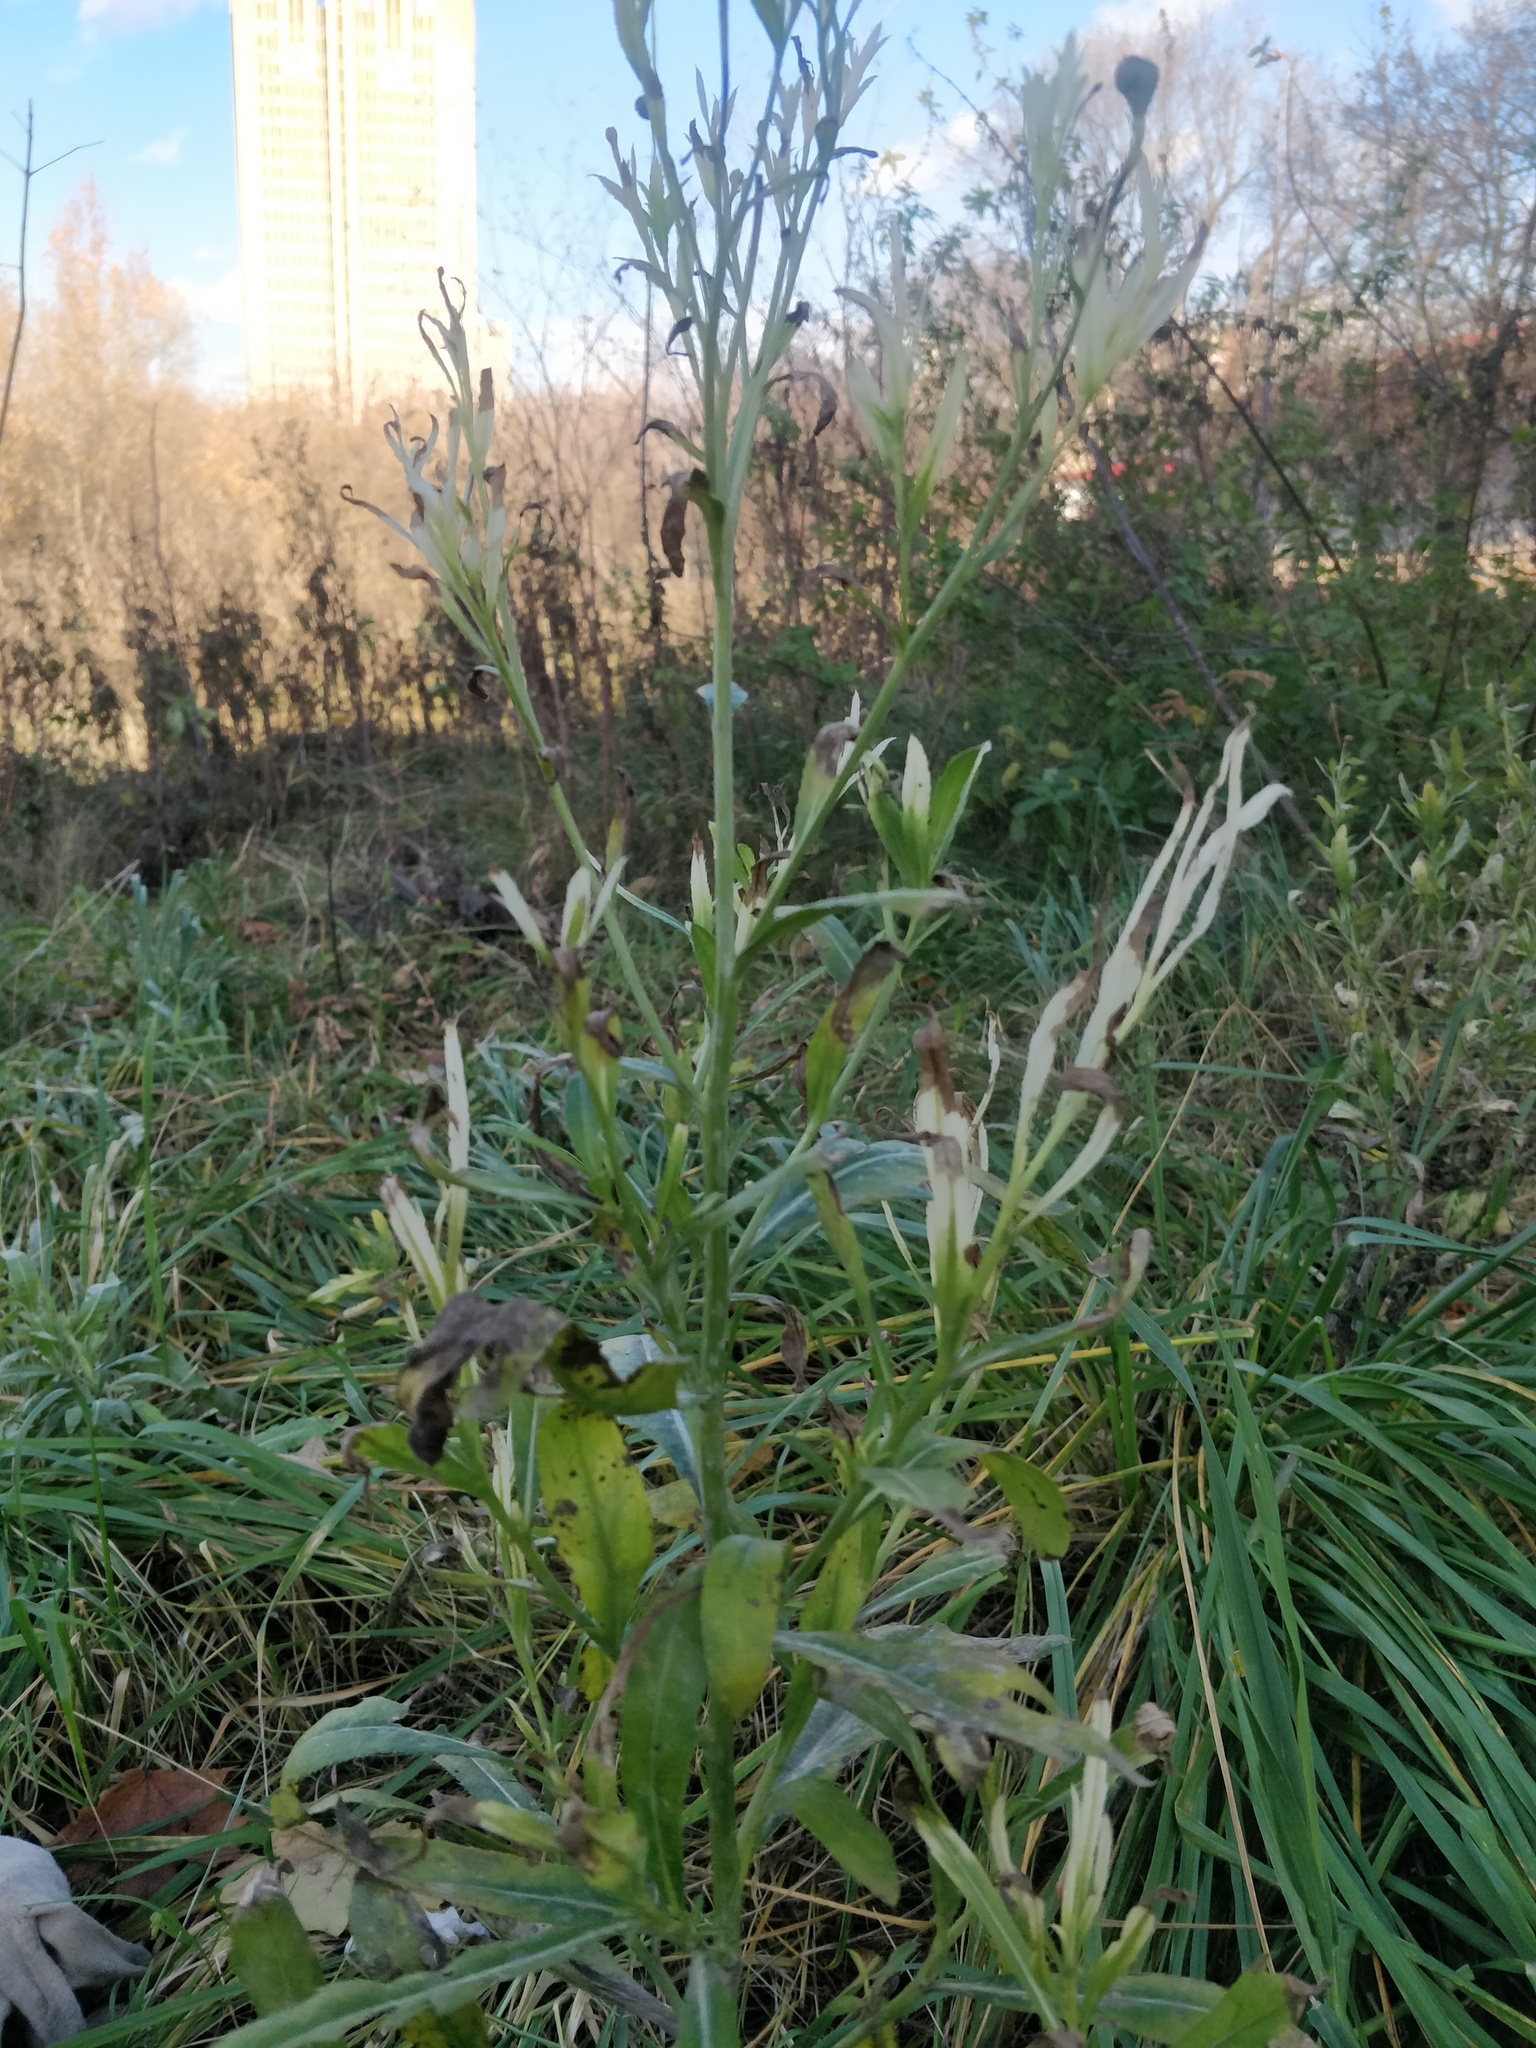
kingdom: Bacteria
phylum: Proteobacteria
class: Gammaproteobacteria
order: Pseudomonadales
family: Pseudomonadaceae
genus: Pseudomonas
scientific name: Pseudomonas syringae
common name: Bacterial speck
